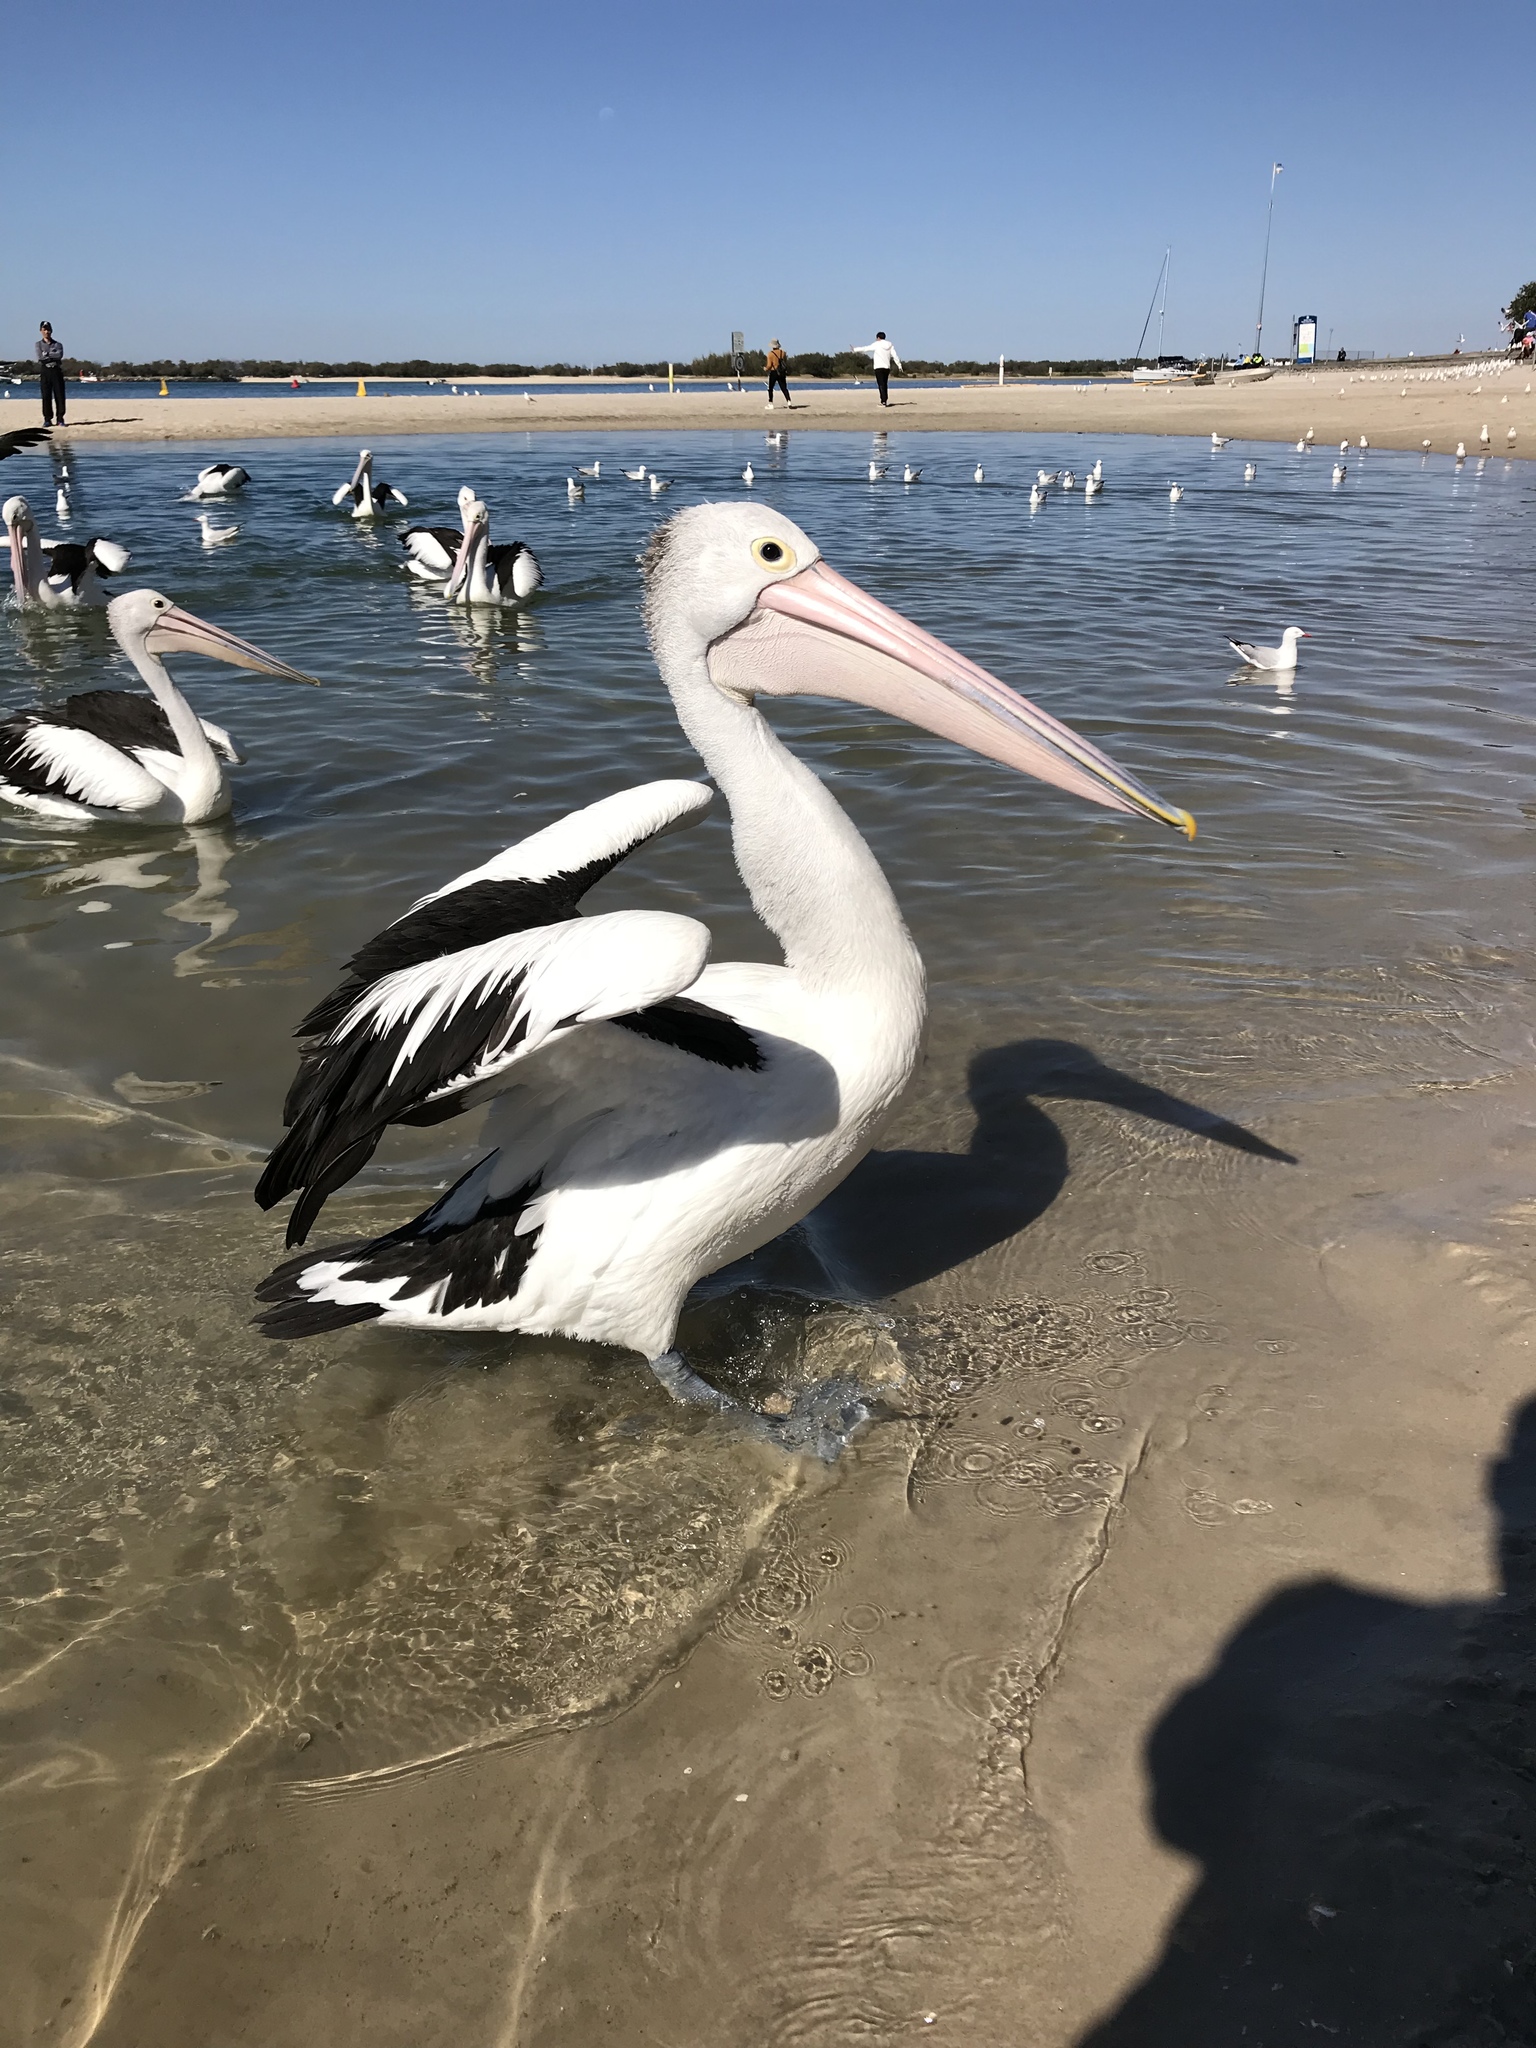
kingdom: Animalia
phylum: Chordata
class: Aves
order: Pelecaniformes
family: Pelecanidae
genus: Pelecanus
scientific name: Pelecanus conspicillatus
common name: Australian pelican
